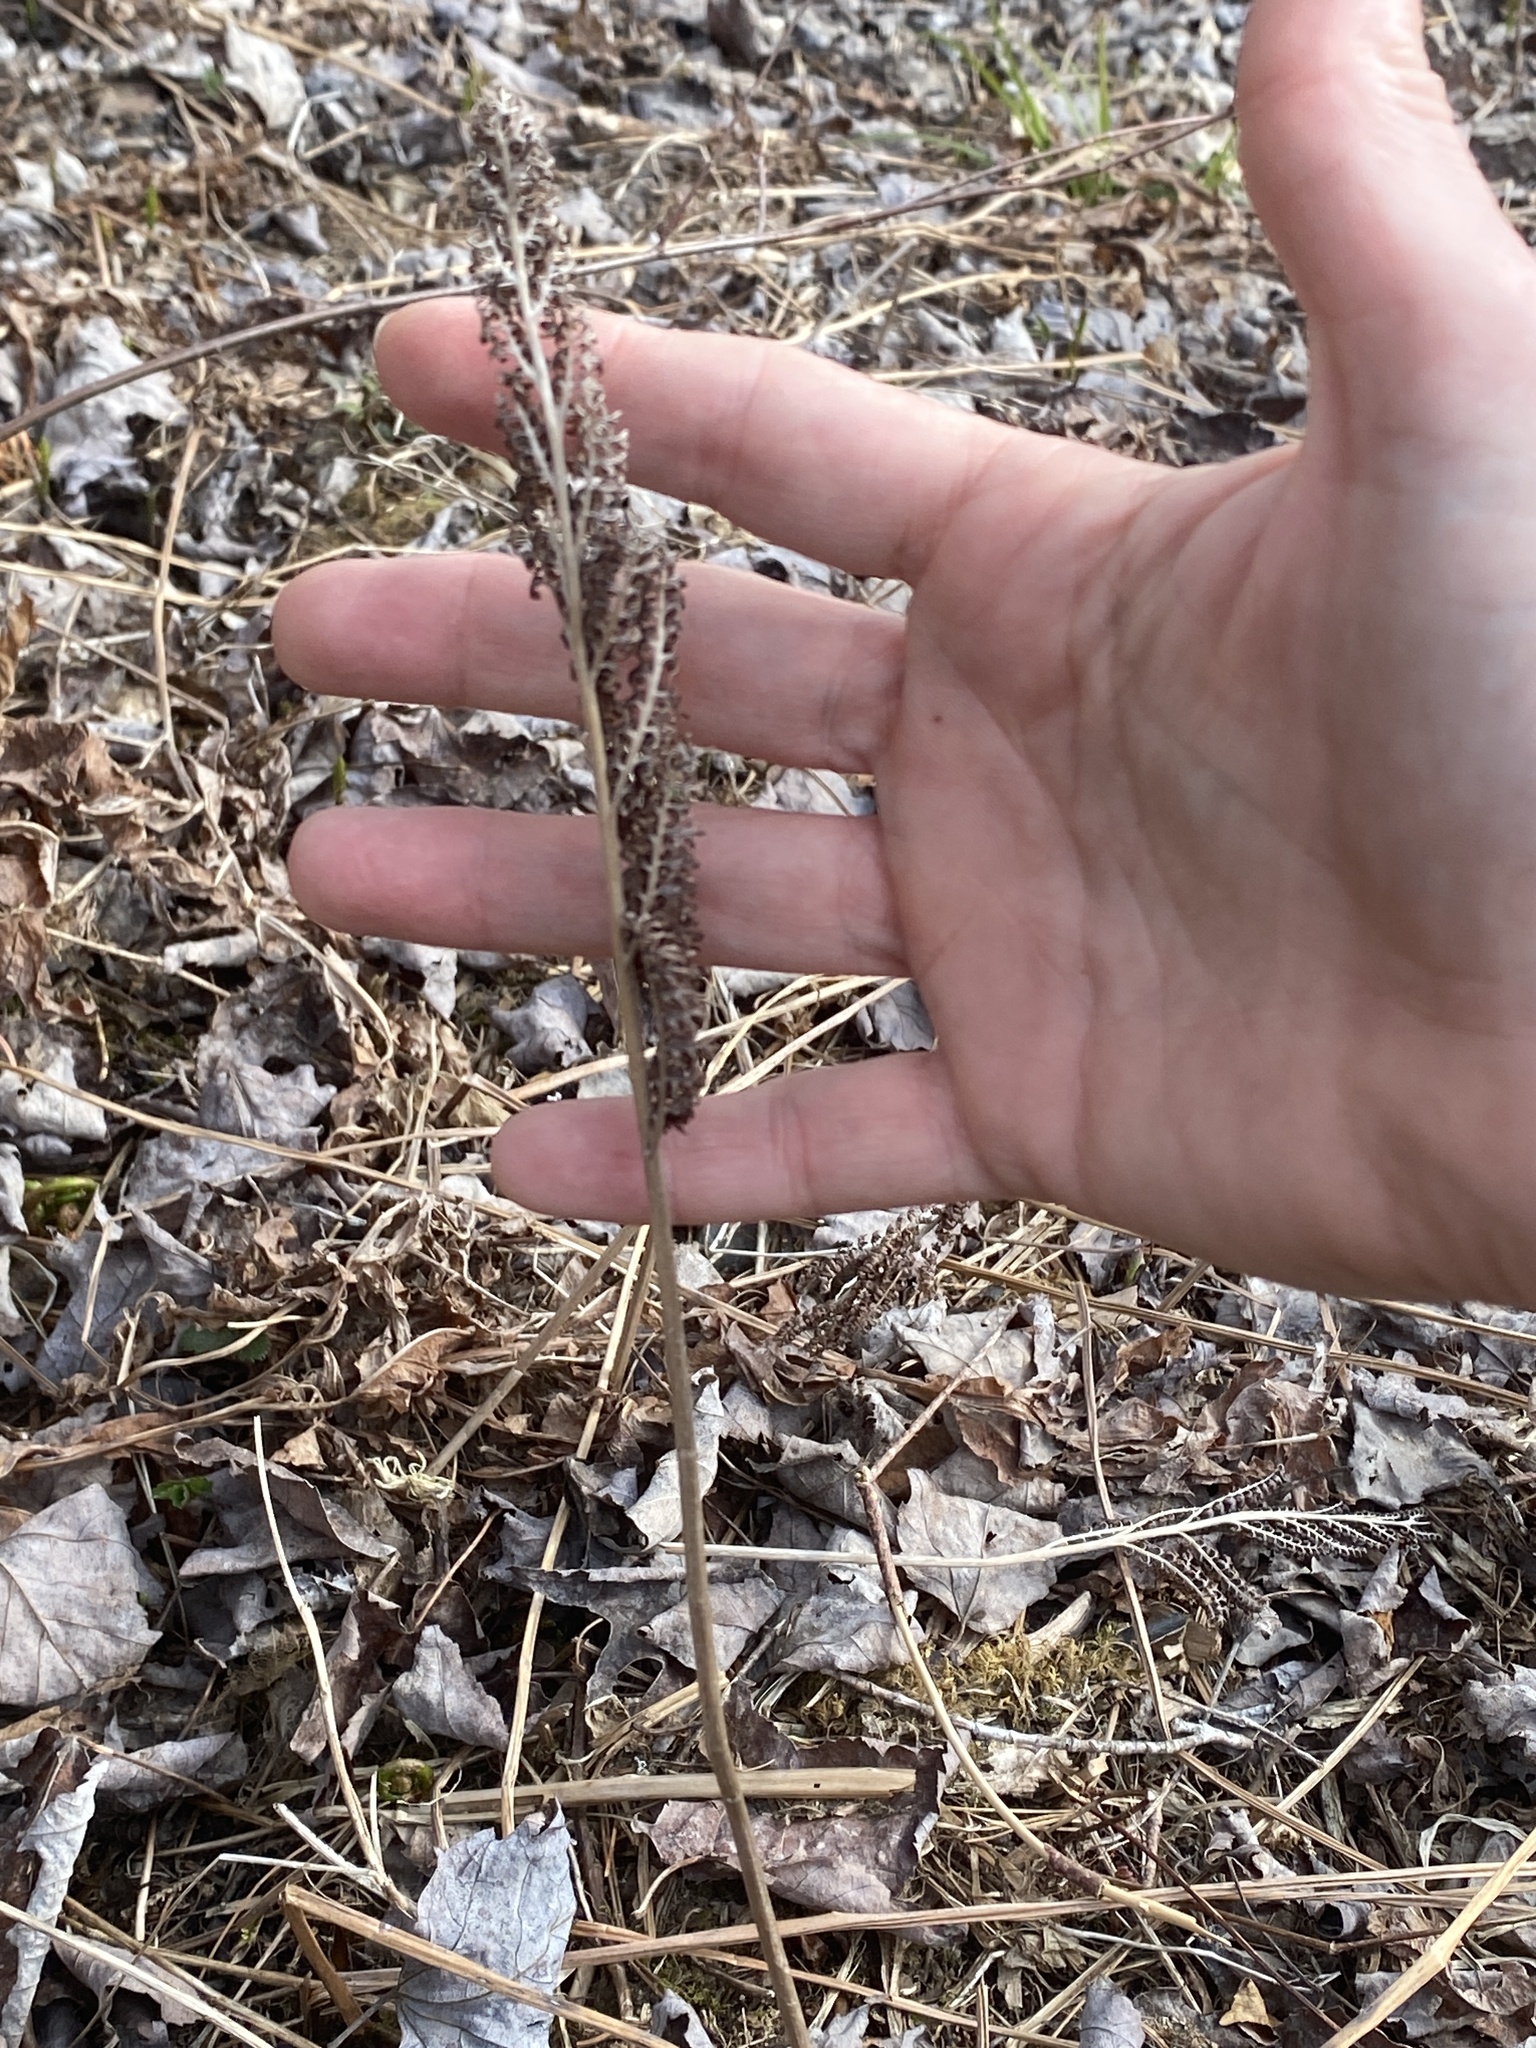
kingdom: Plantae
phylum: Tracheophyta
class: Polypodiopsida
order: Polypodiales
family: Onocleaceae
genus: Onoclea
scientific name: Onoclea sensibilis
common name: Sensitive fern
